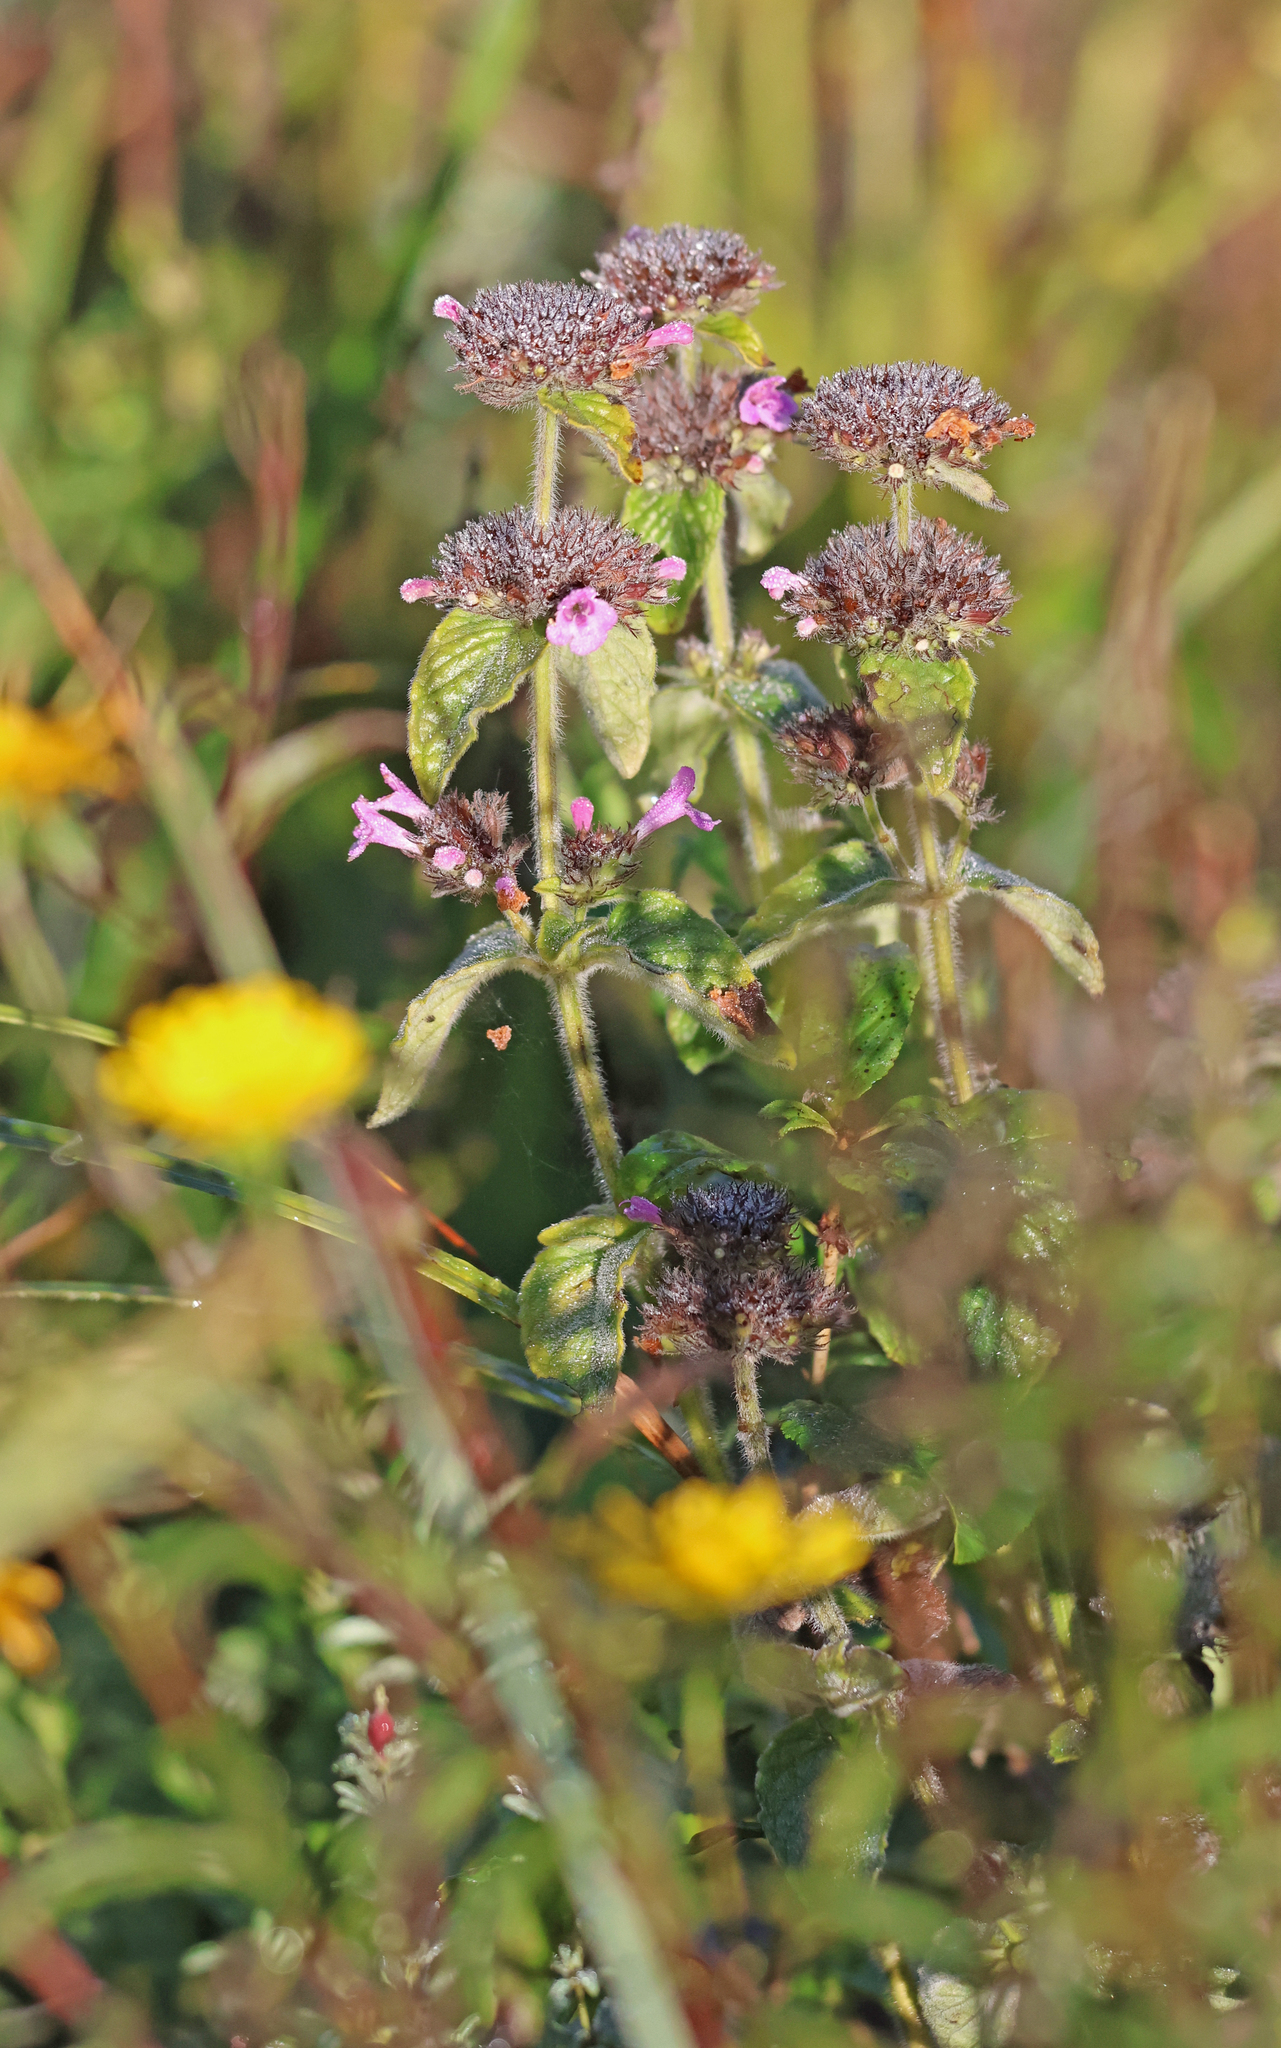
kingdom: Plantae
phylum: Tracheophyta
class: Magnoliopsida
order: Lamiales
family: Lamiaceae
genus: Clinopodium
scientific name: Clinopodium vulgare
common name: Wild basil
